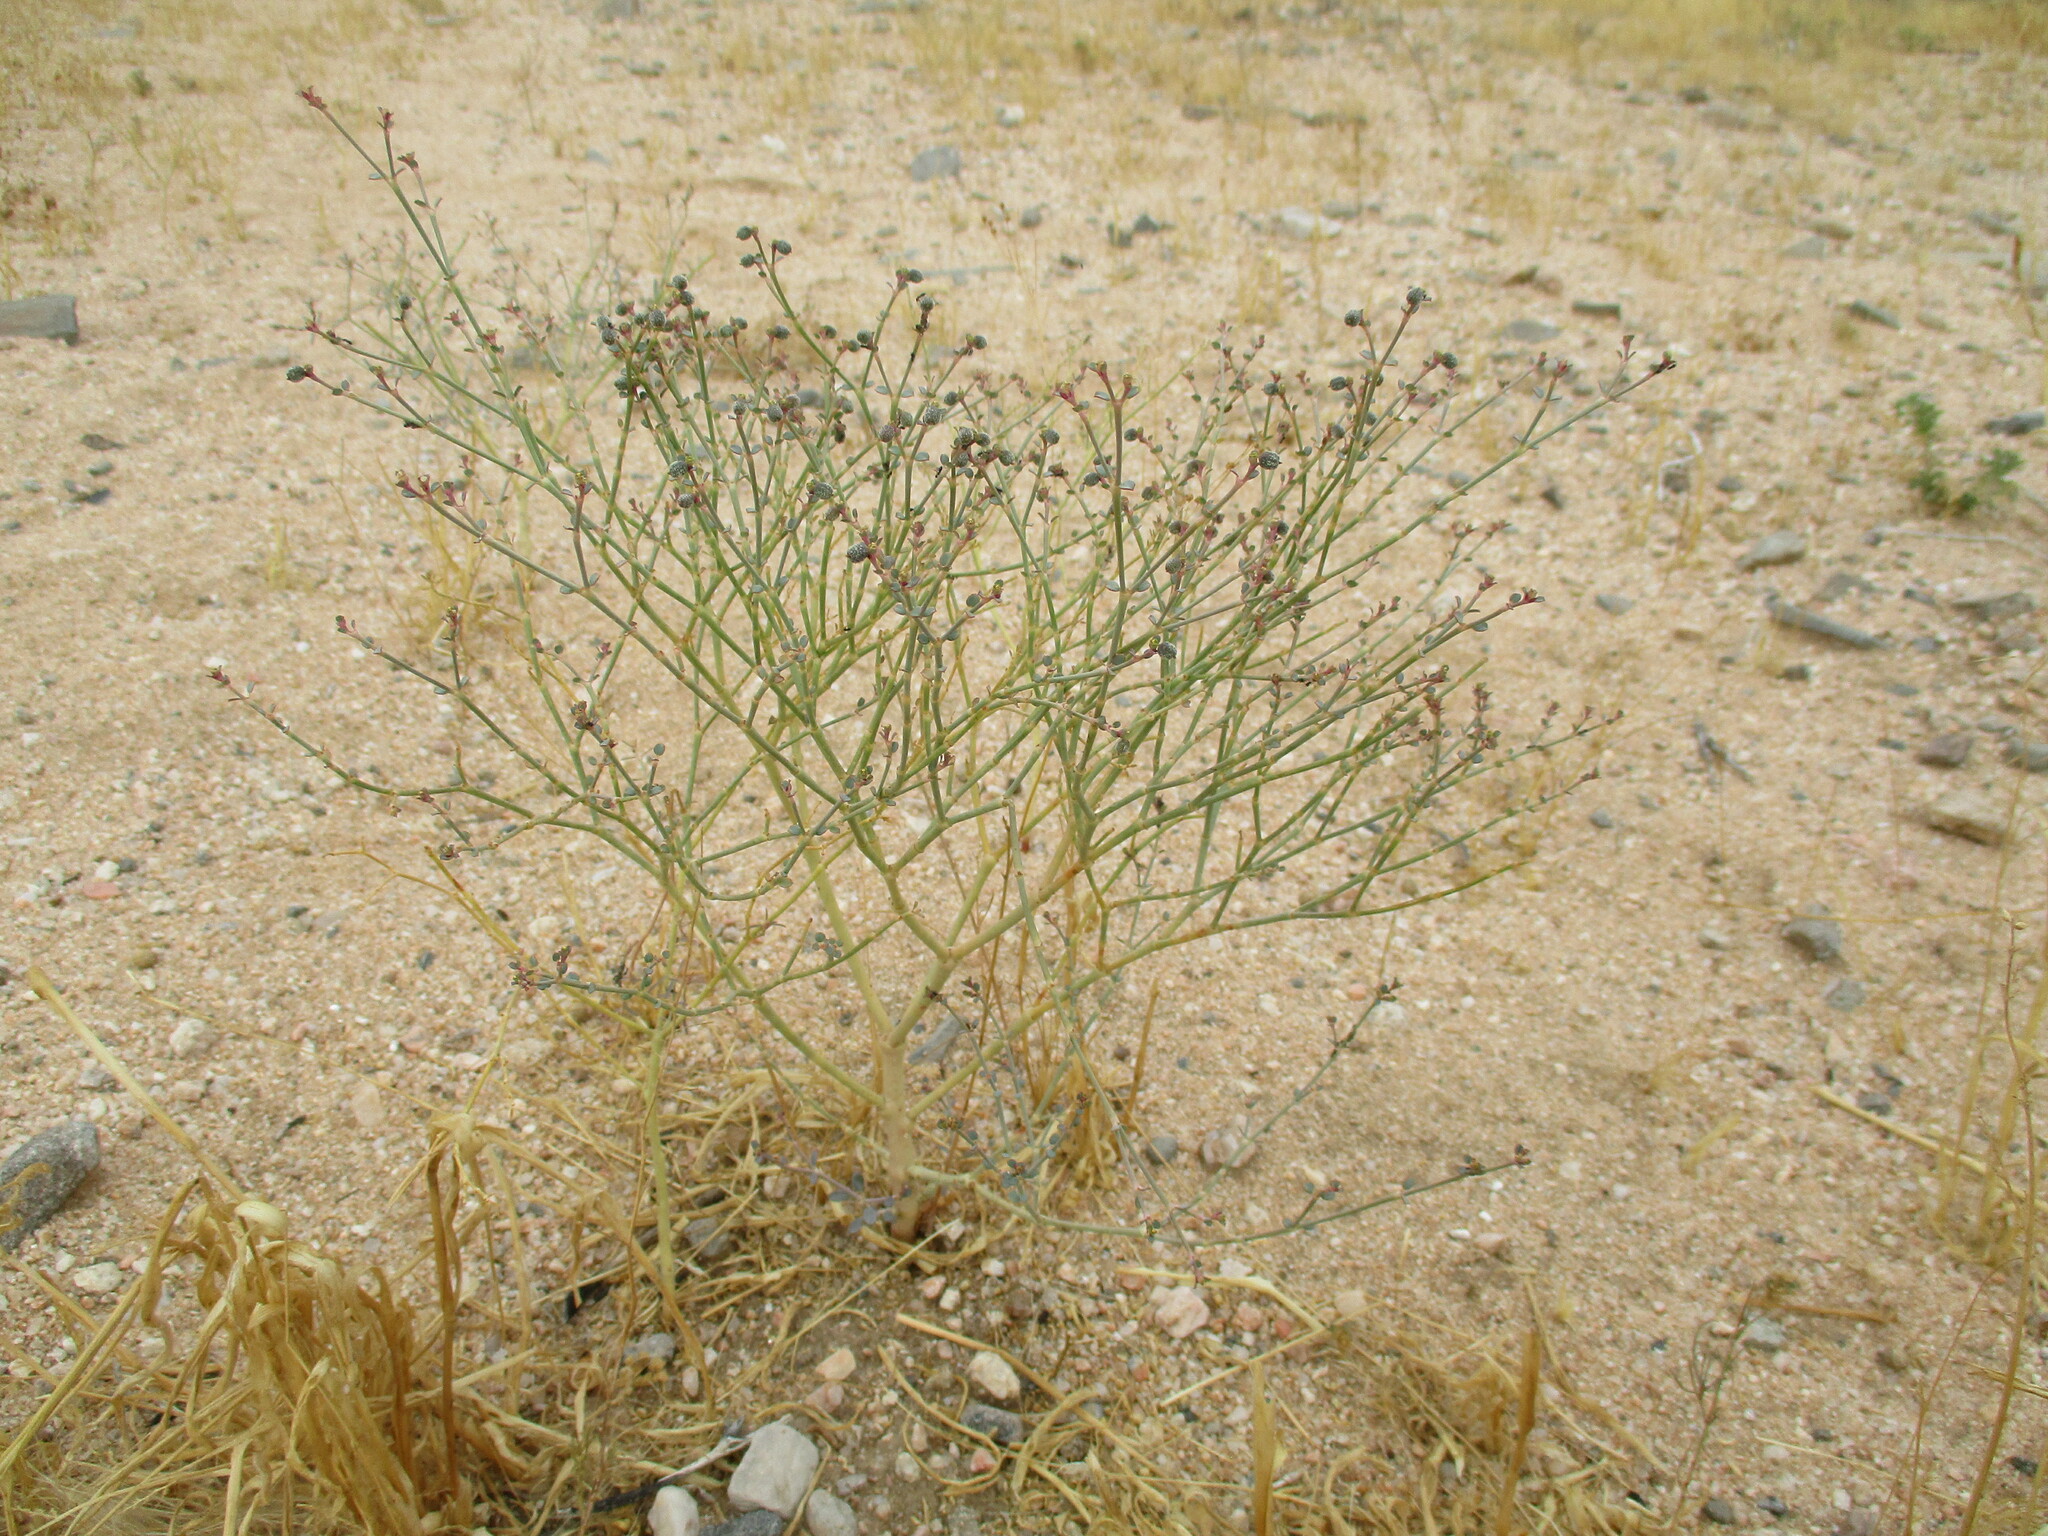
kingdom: Plantae
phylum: Tracheophyta
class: Magnoliopsida
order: Malpighiales
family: Euphorbiaceae
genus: Euphorbia
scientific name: Euphorbia glanduligera
